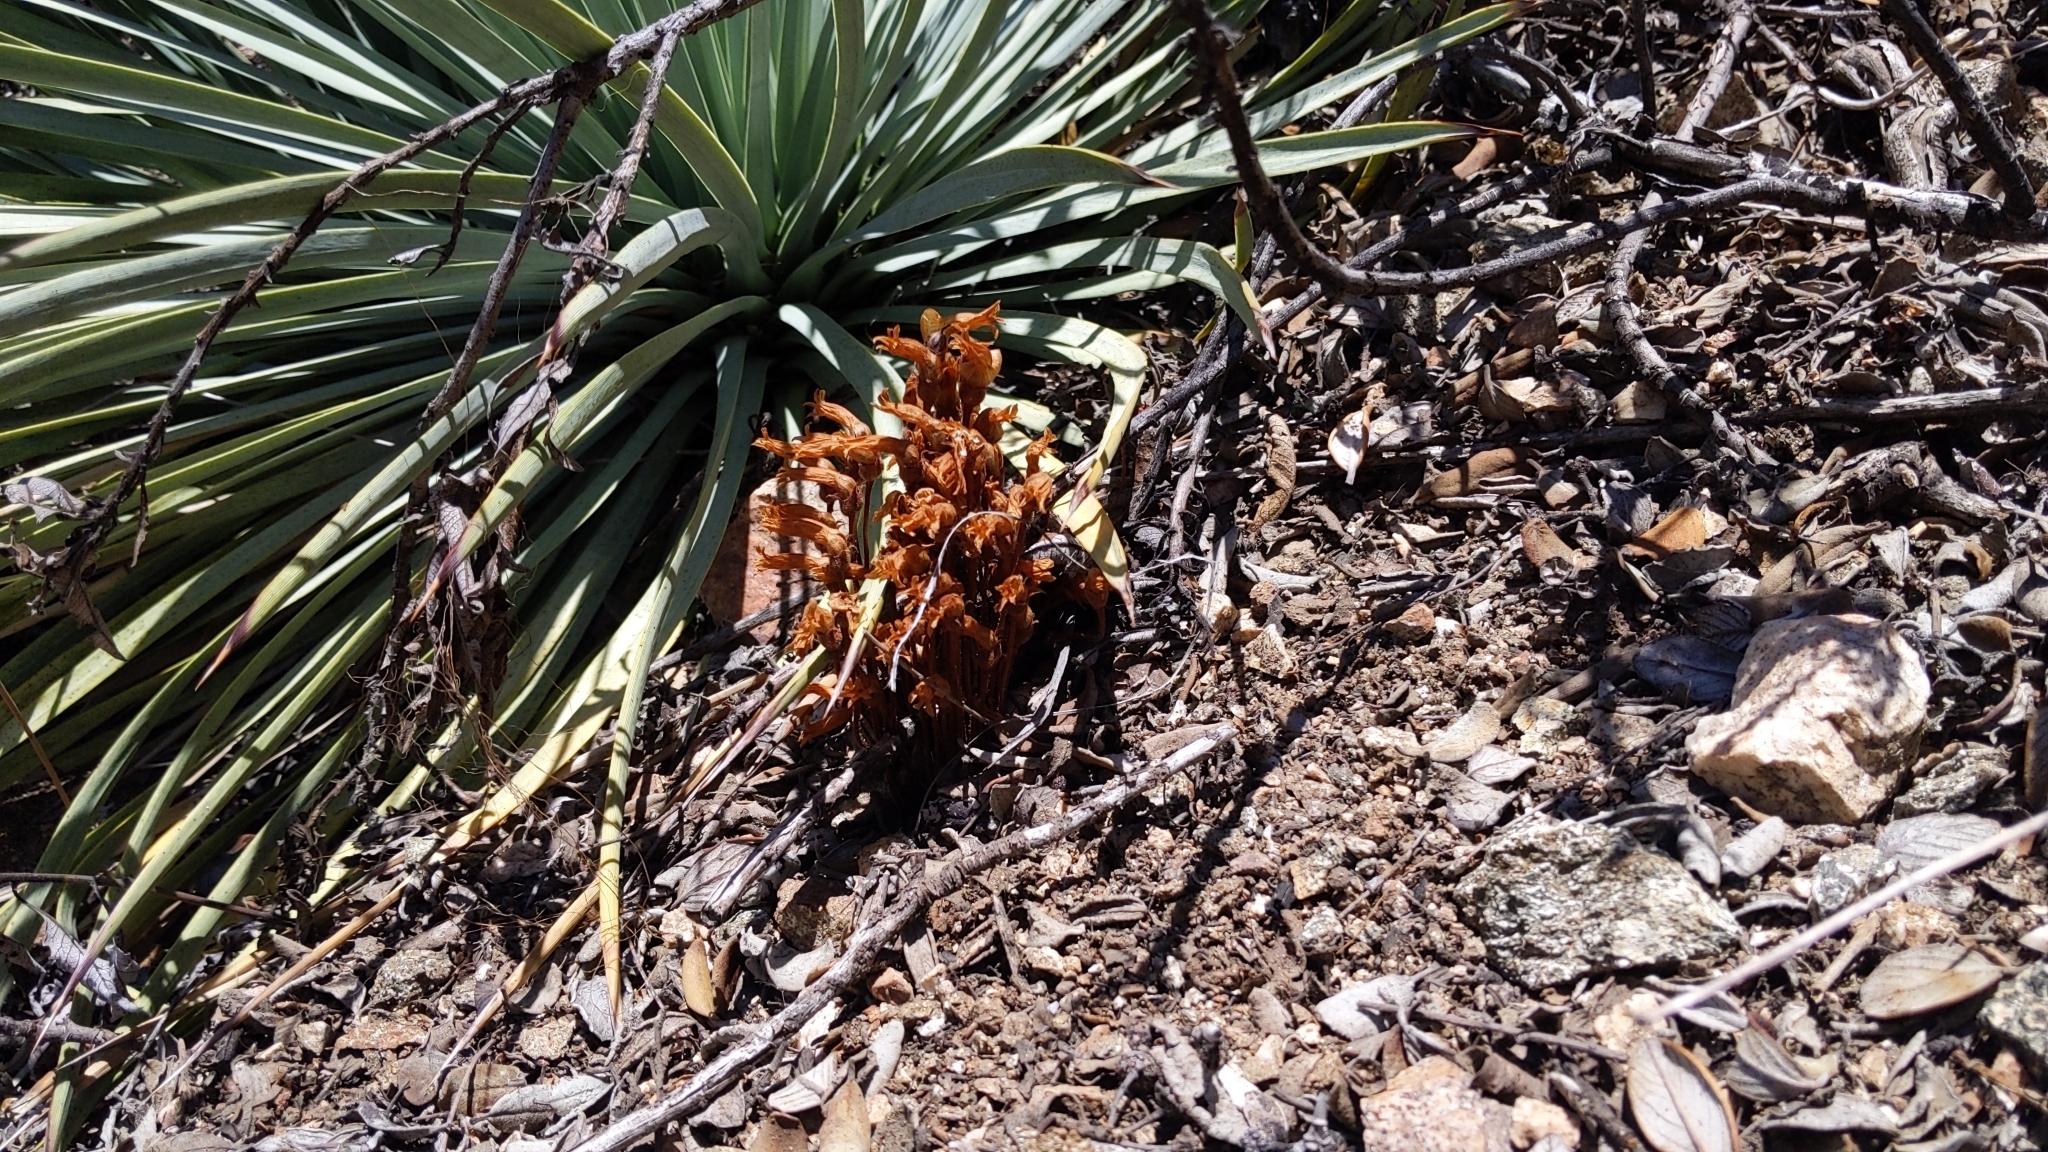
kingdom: Plantae
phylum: Tracheophyta
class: Magnoliopsida
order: Lamiales
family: Orobanchaceae
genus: Aphyllon
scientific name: Aphyllon franciscanum
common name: San francisco broomrape
